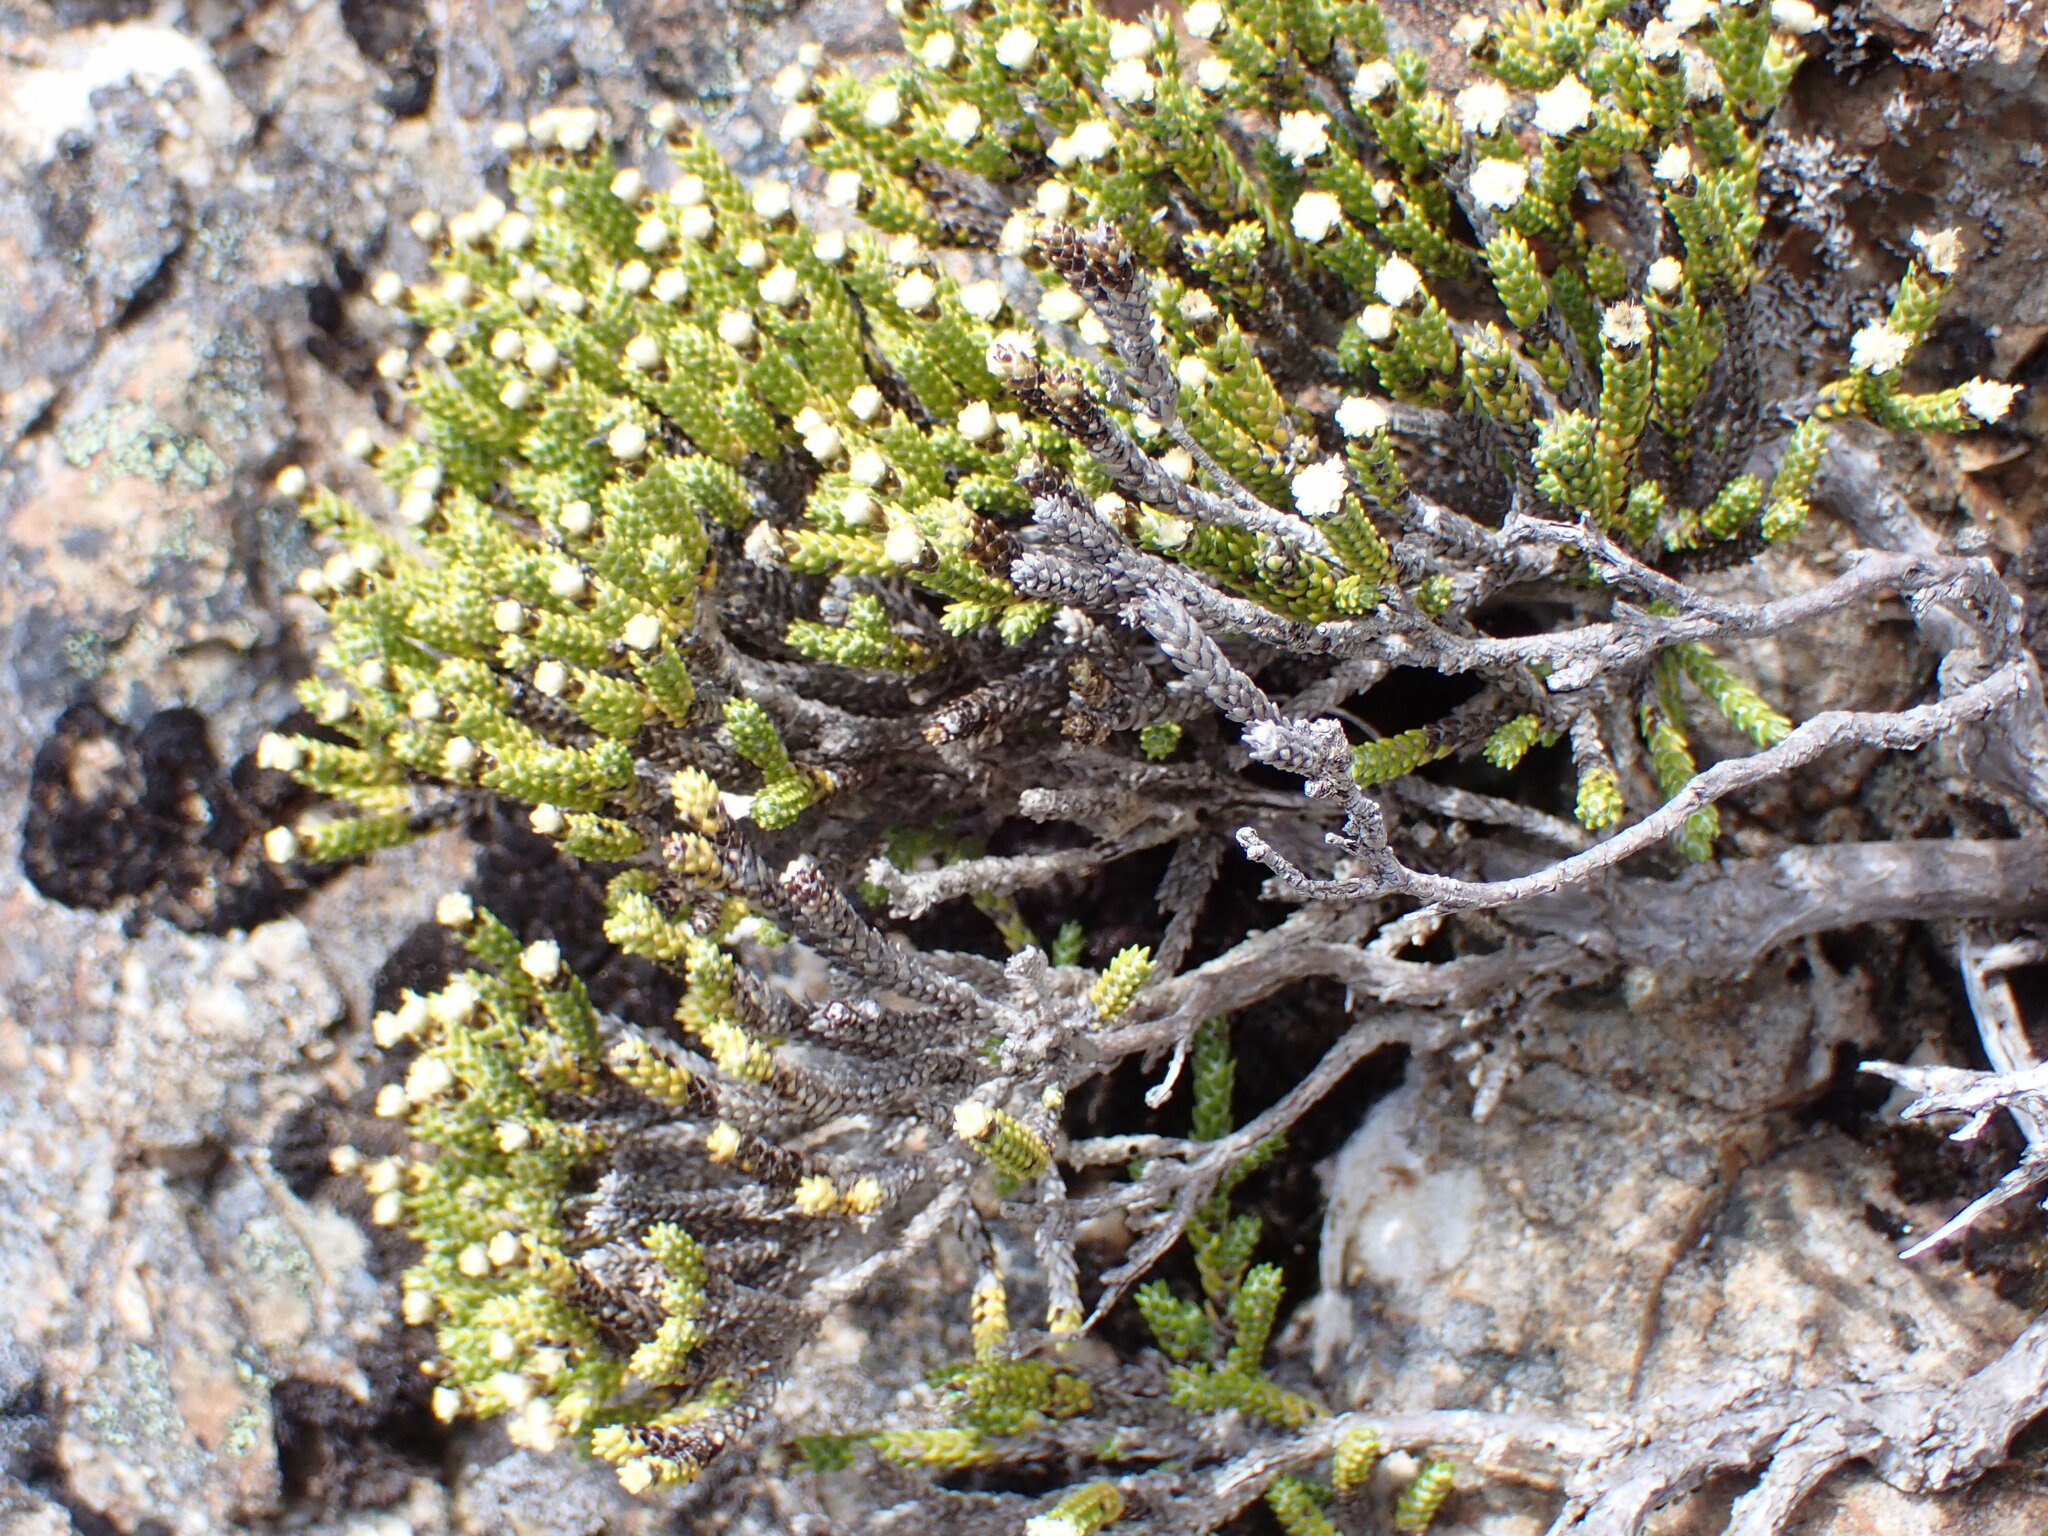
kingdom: Plantae
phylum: Tracheophyta
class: Magnoliopsida
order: Asterales
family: Asteraceae
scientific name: Asteraceae
